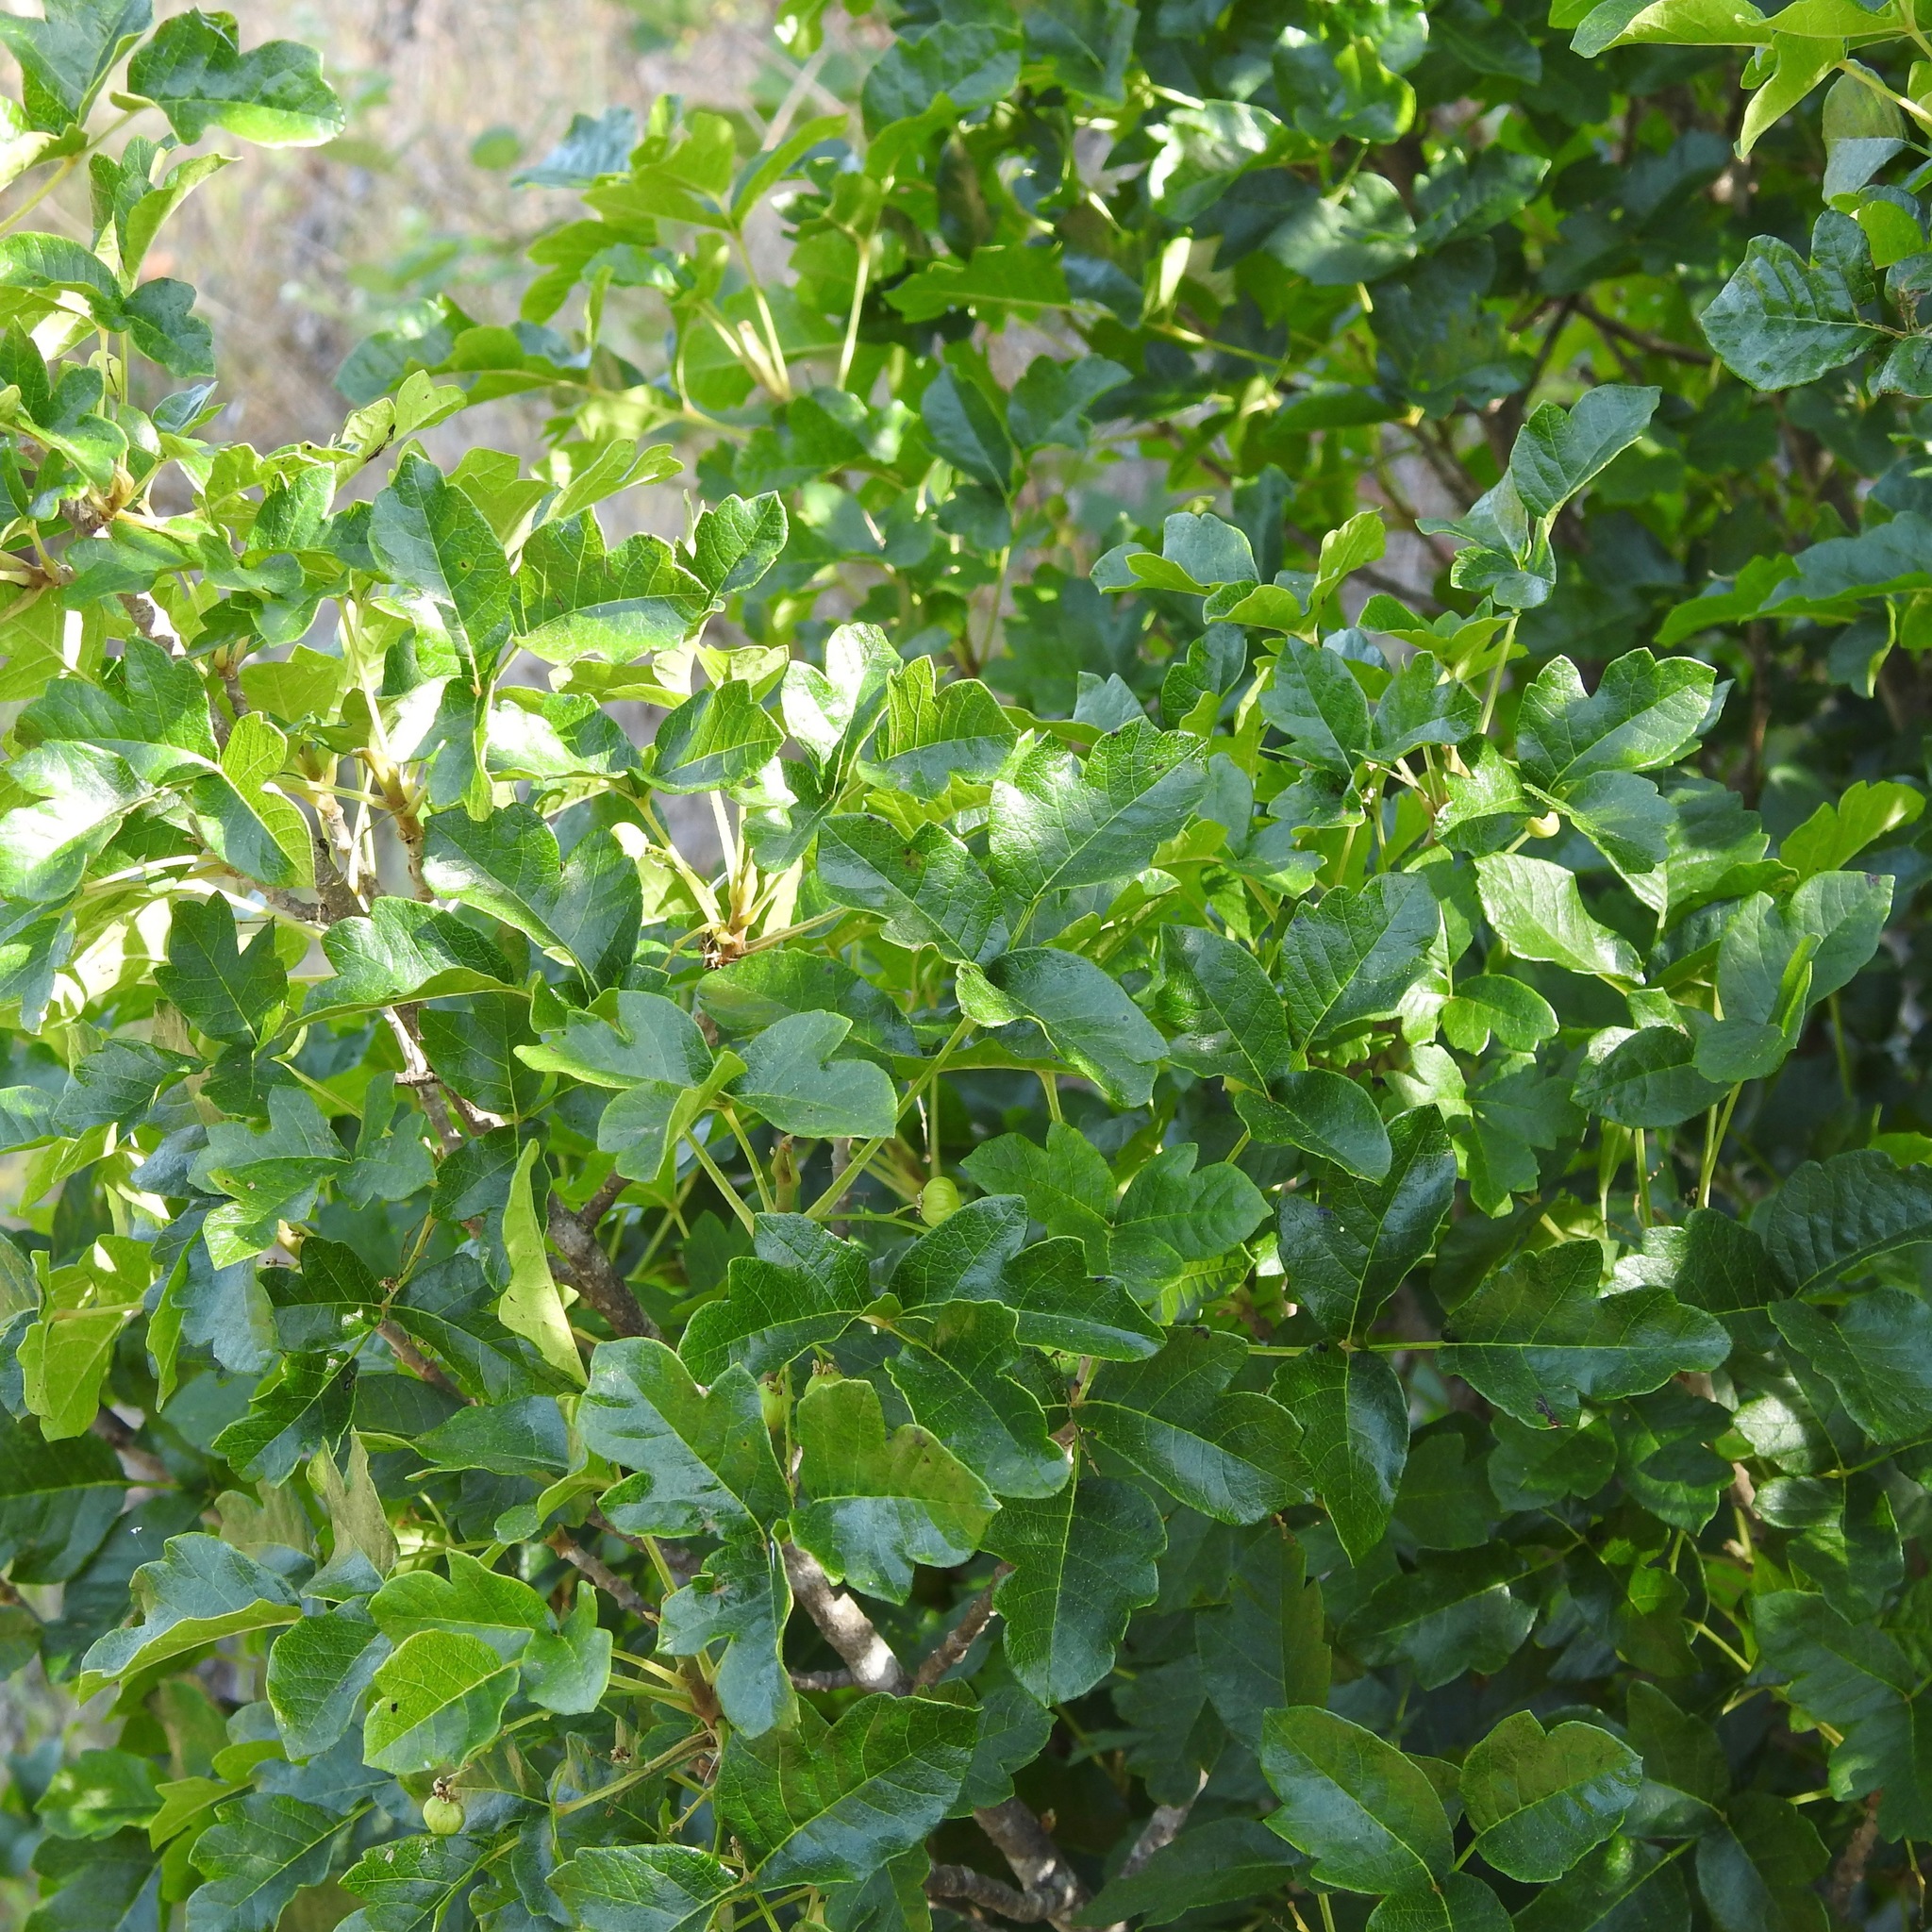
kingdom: Plantae
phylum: Tracheophyta
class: Magnoliopsida
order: Sapindales
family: Anacardiaceae
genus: Toxicodendron
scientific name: Toxicodendron diversilobum
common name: Pacific poison-oak
